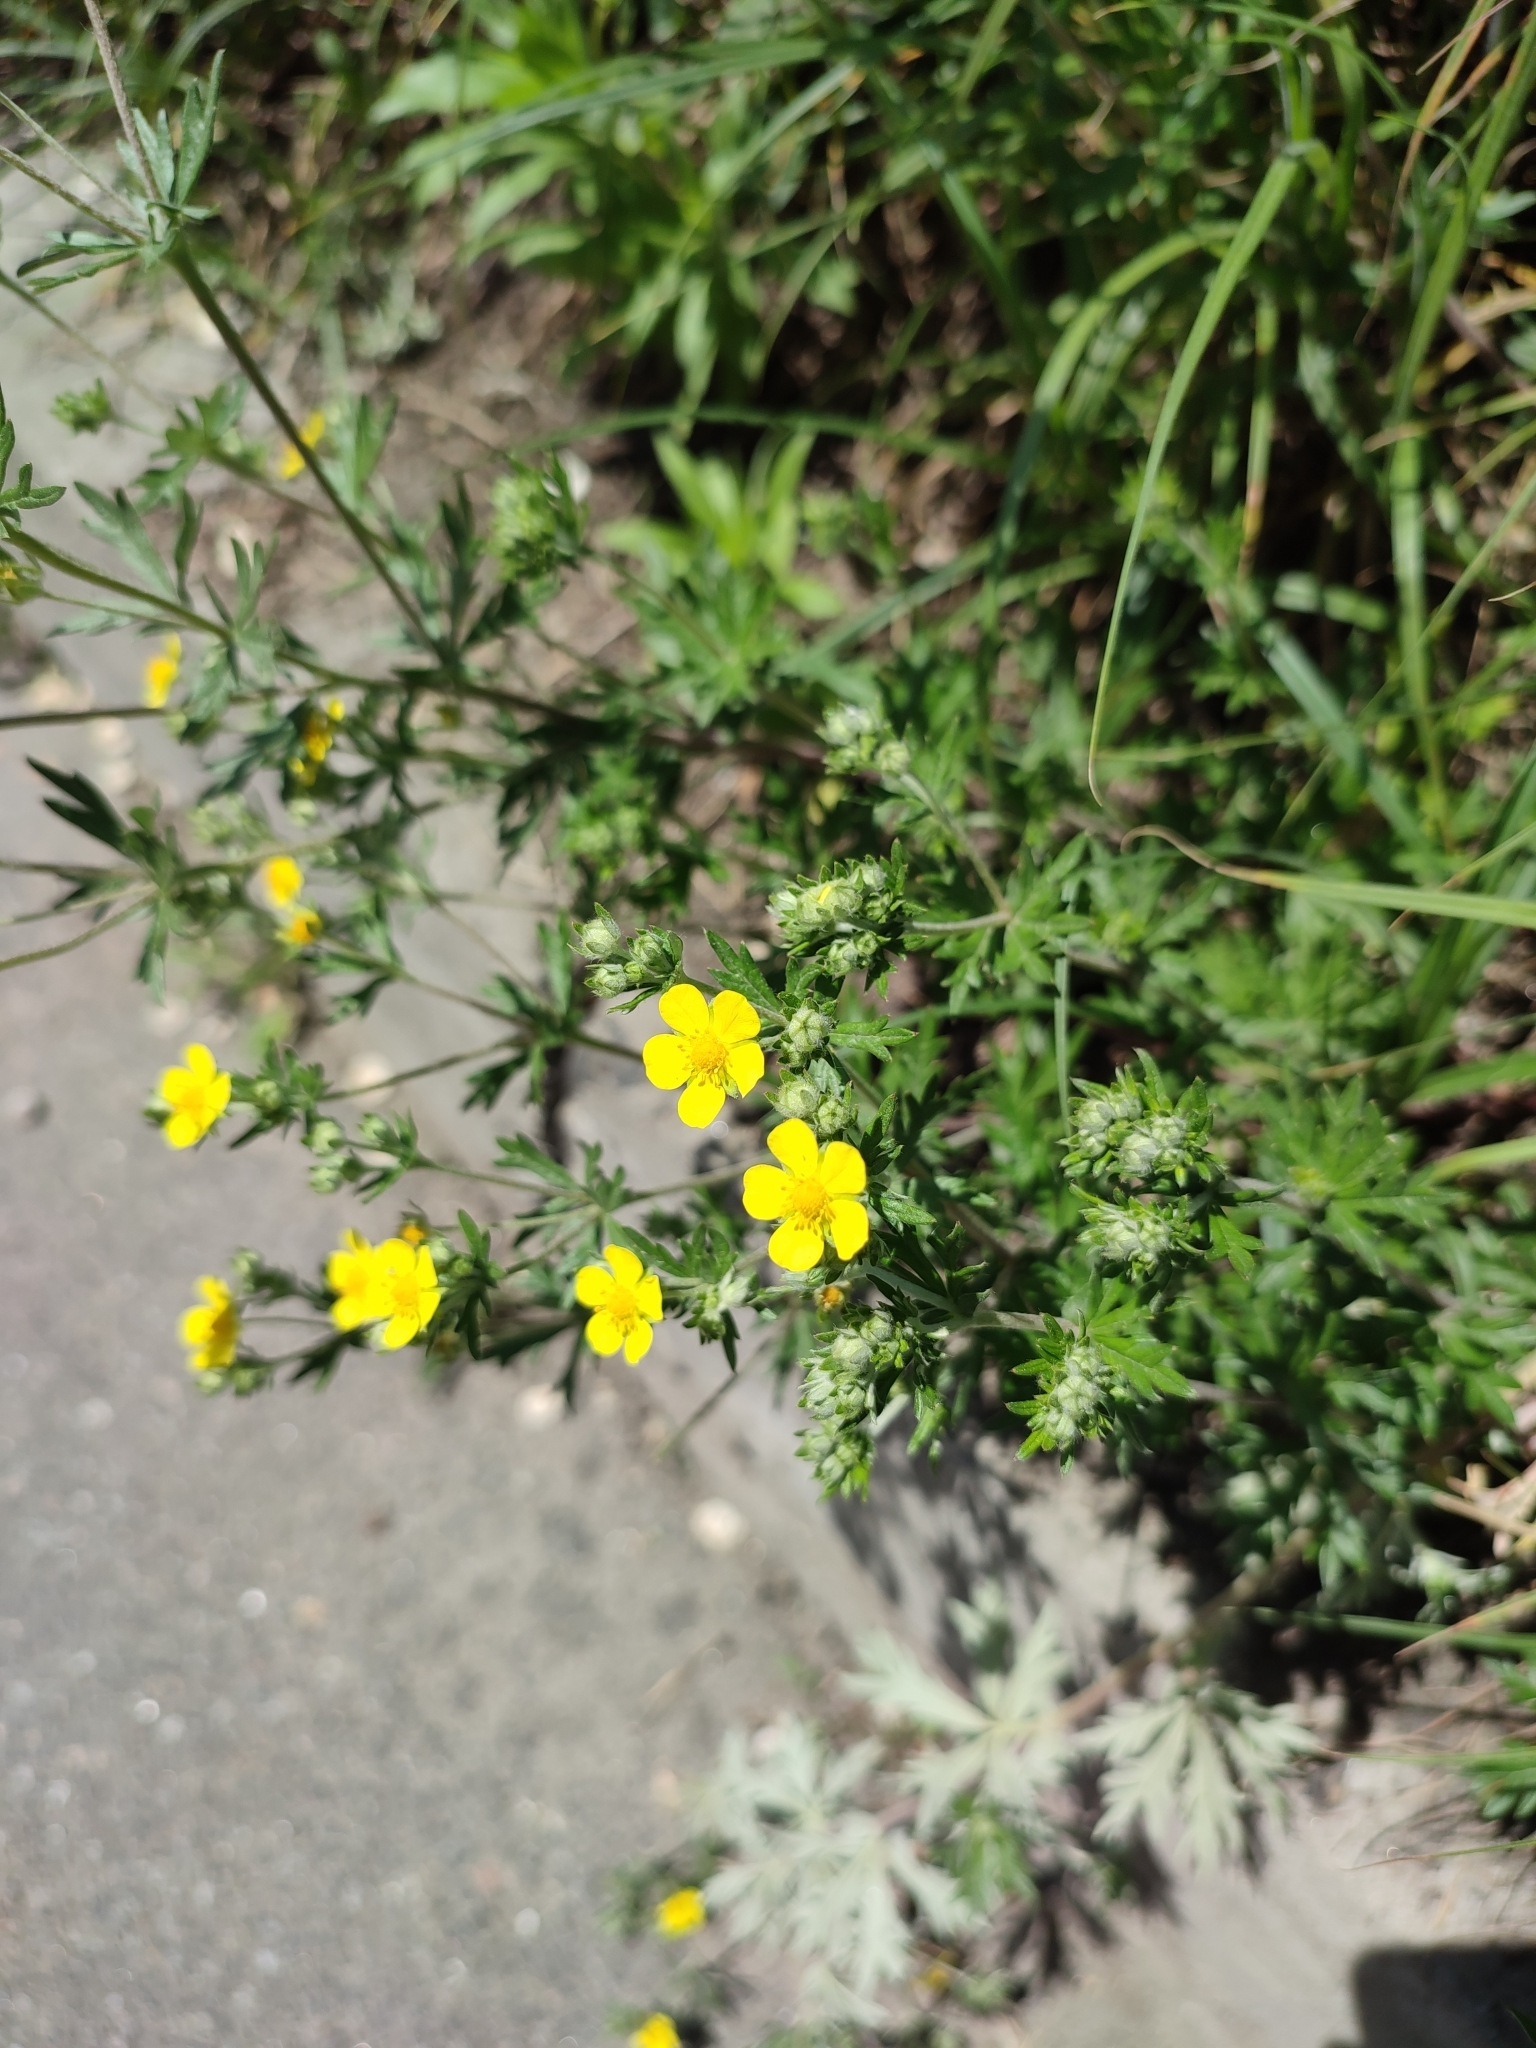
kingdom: Plantae
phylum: Tracheophyta
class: Magnoliopsida
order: Rosales
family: Rosaceae
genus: Potentilla
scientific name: Potentilla argentea
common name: Hoary cinquefoil
